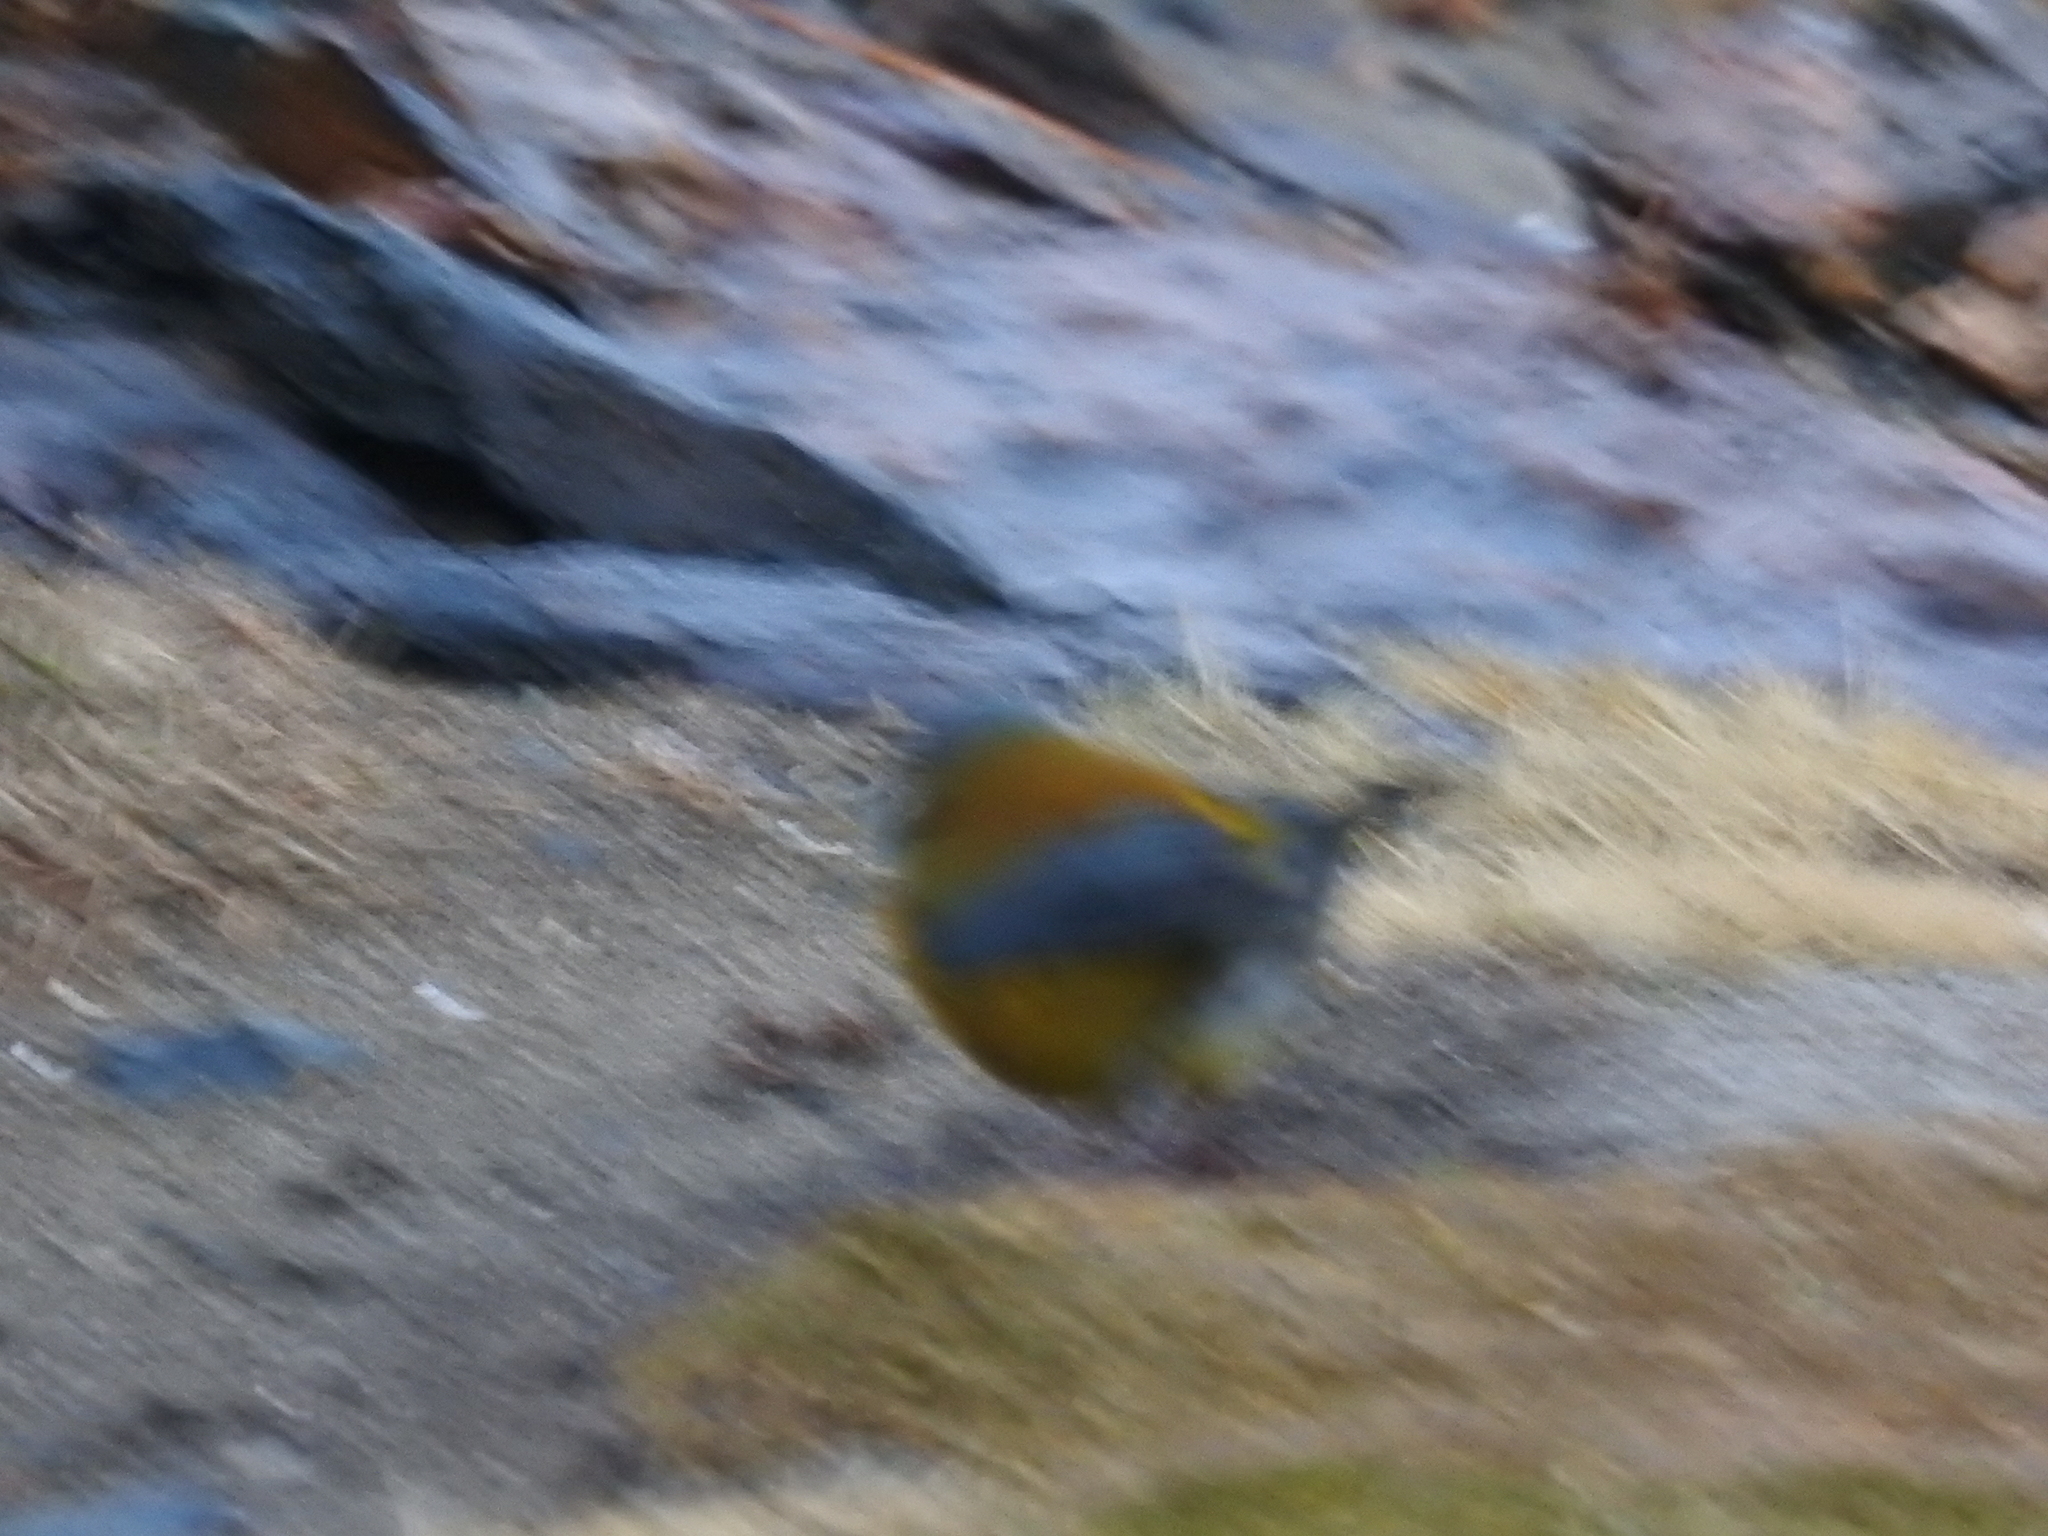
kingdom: Animalia
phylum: Chordata
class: Aves
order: Passeriformes
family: Thraupidae
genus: Phrygilus
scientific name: Phrygilus patagonicus
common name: Patagonian sierra finch
